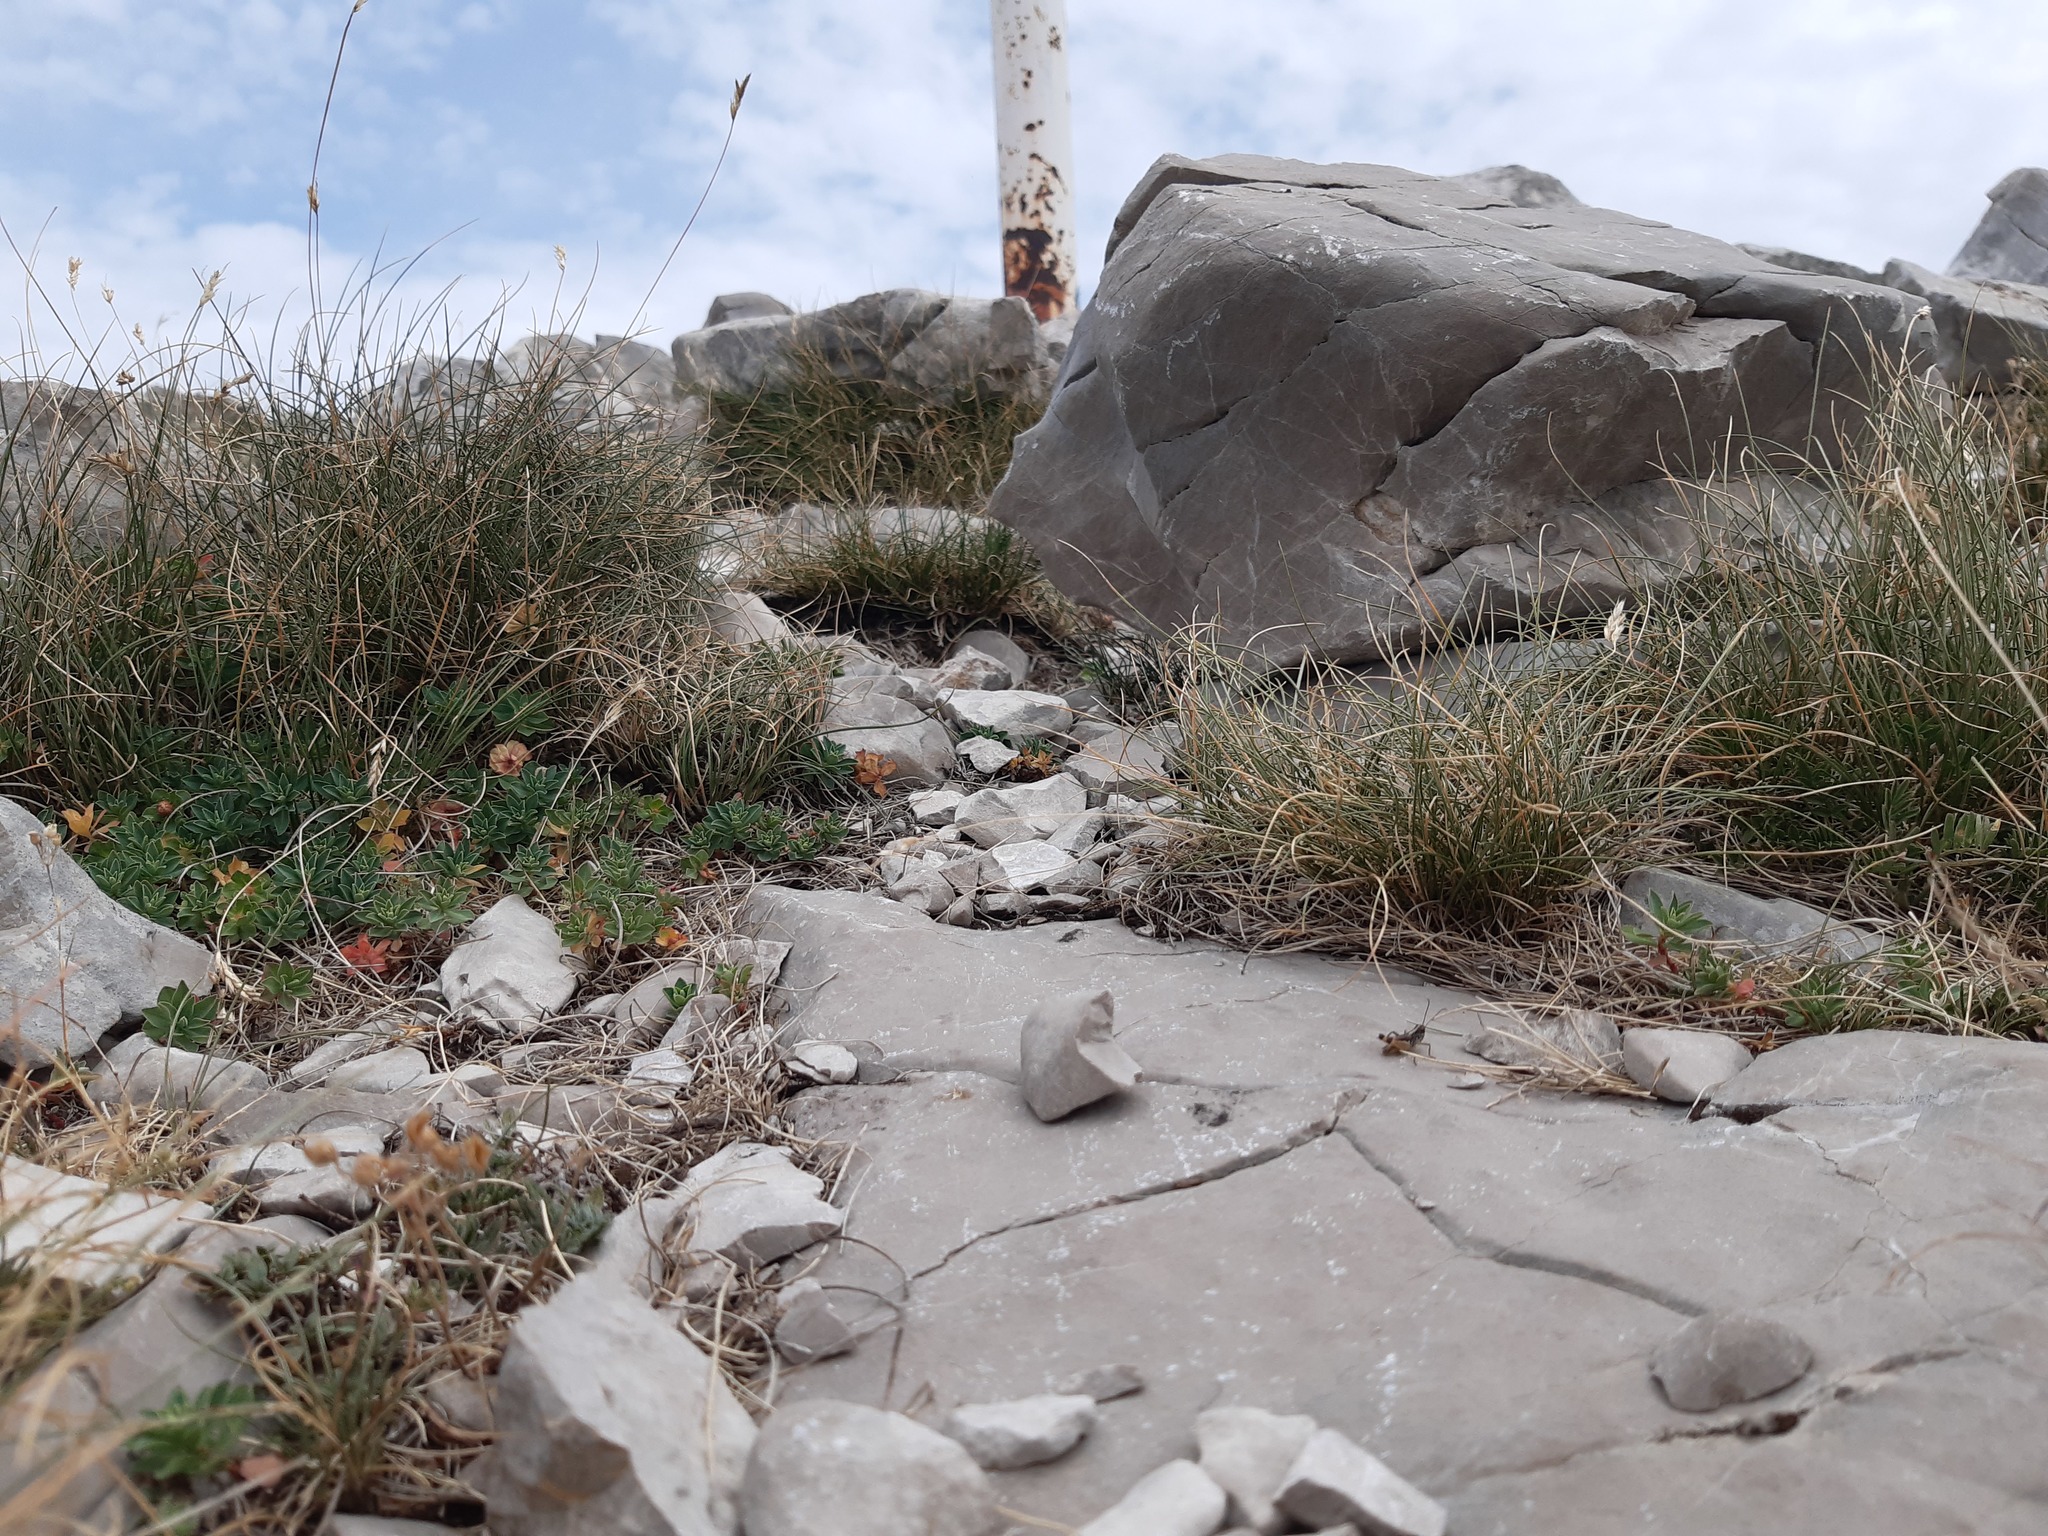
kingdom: Plantae
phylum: Tracheophyta
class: Liliopsida
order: Poales
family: Poaceae
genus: Sesleria
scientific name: Sesleria juncifolia
